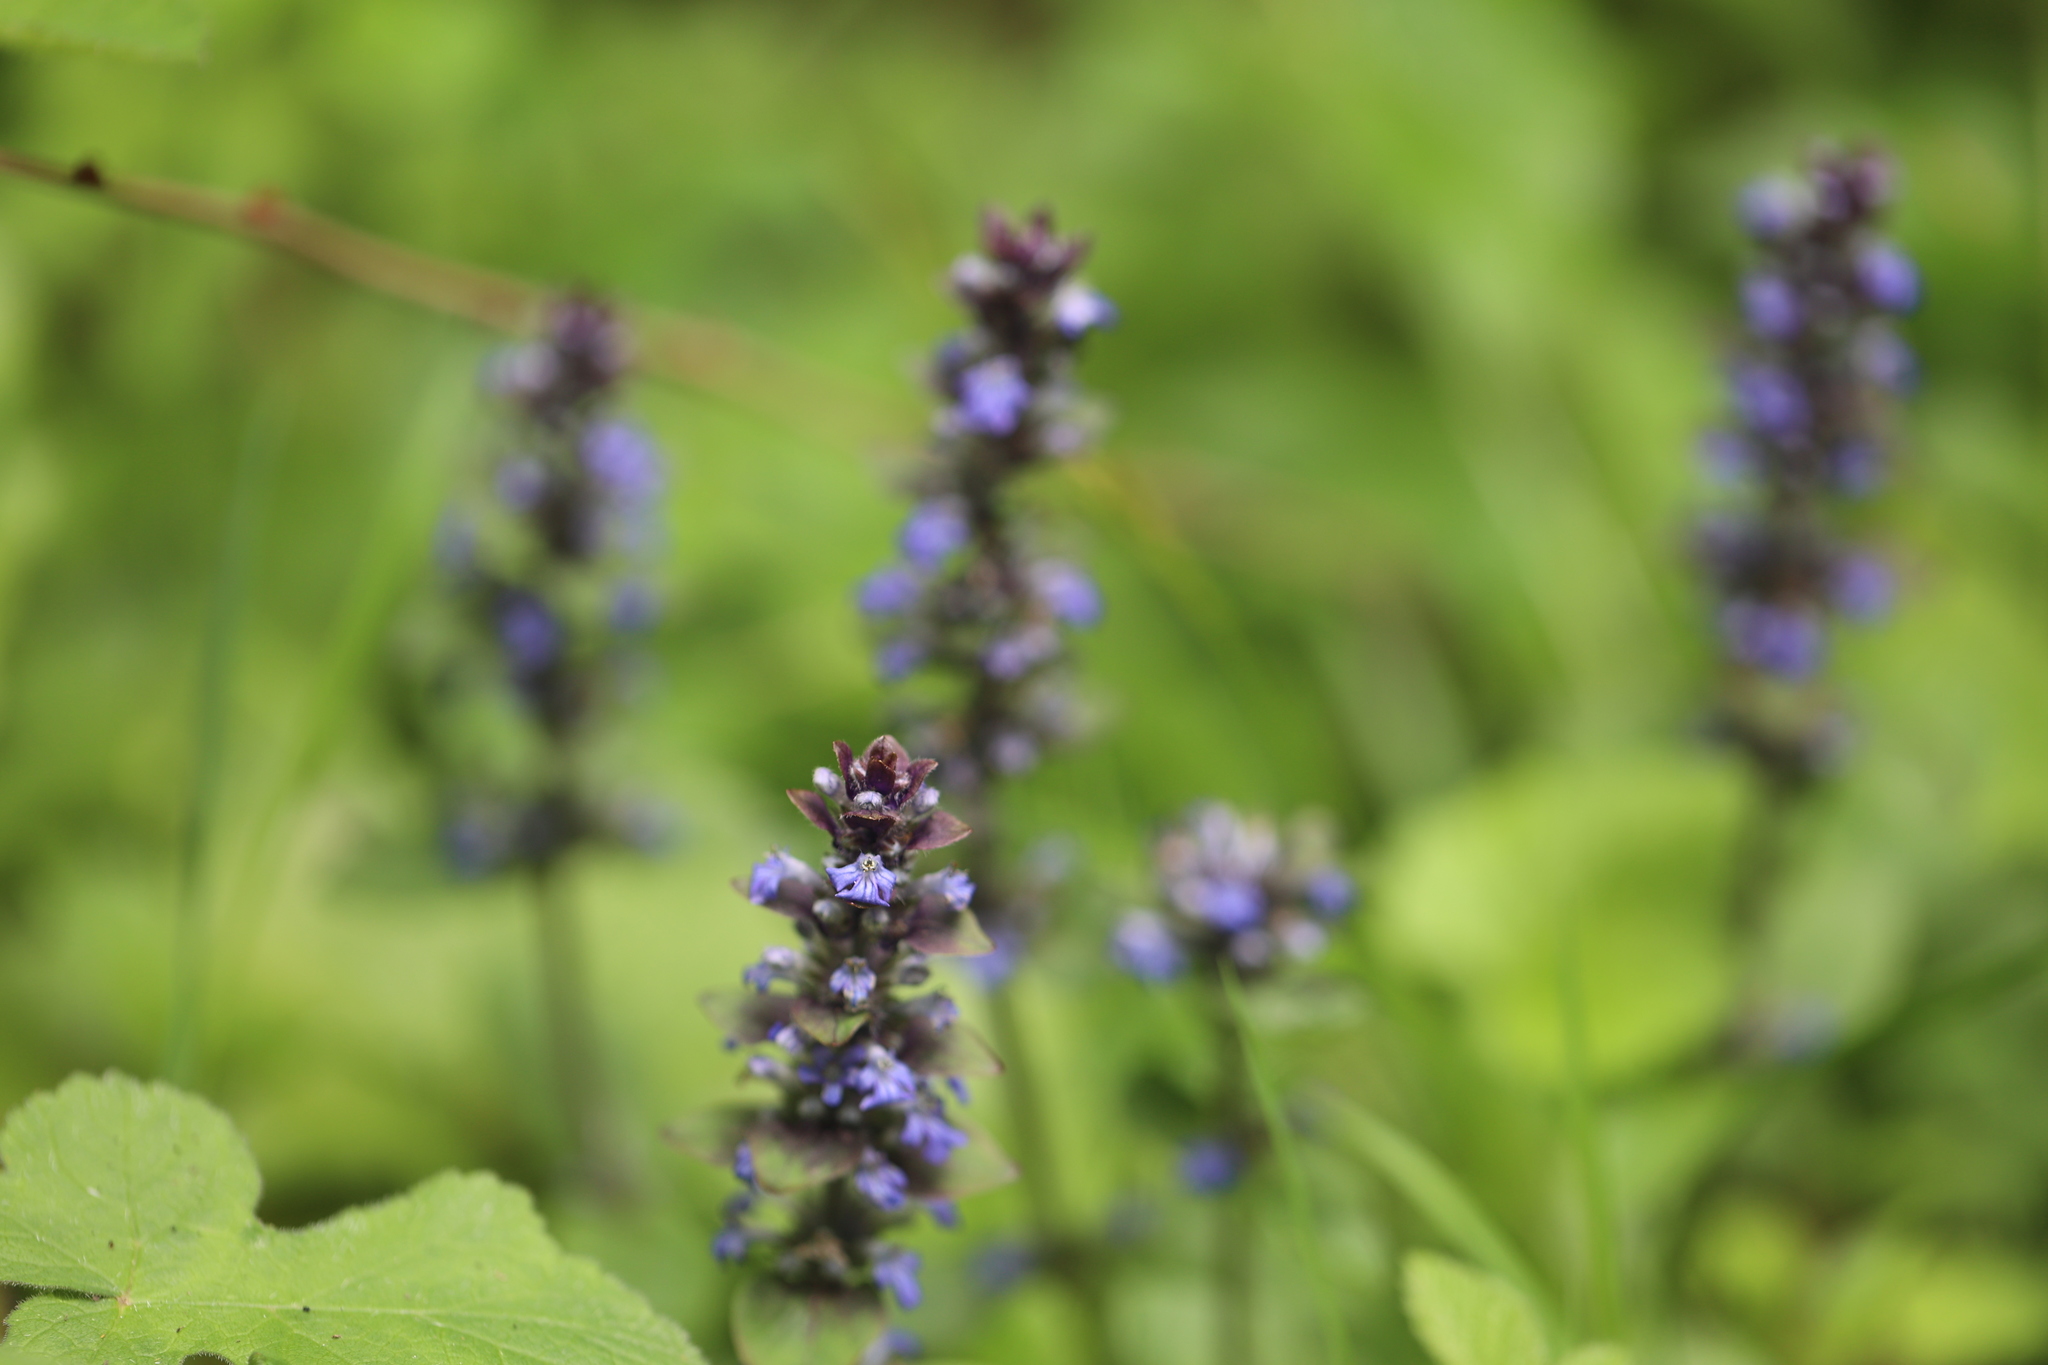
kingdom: Plantae
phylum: Tracheophyta
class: Magnoliopsida
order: Lamiales
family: Lamiaceae
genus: Ajuga
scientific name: Ajuga reptans
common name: Bugle
